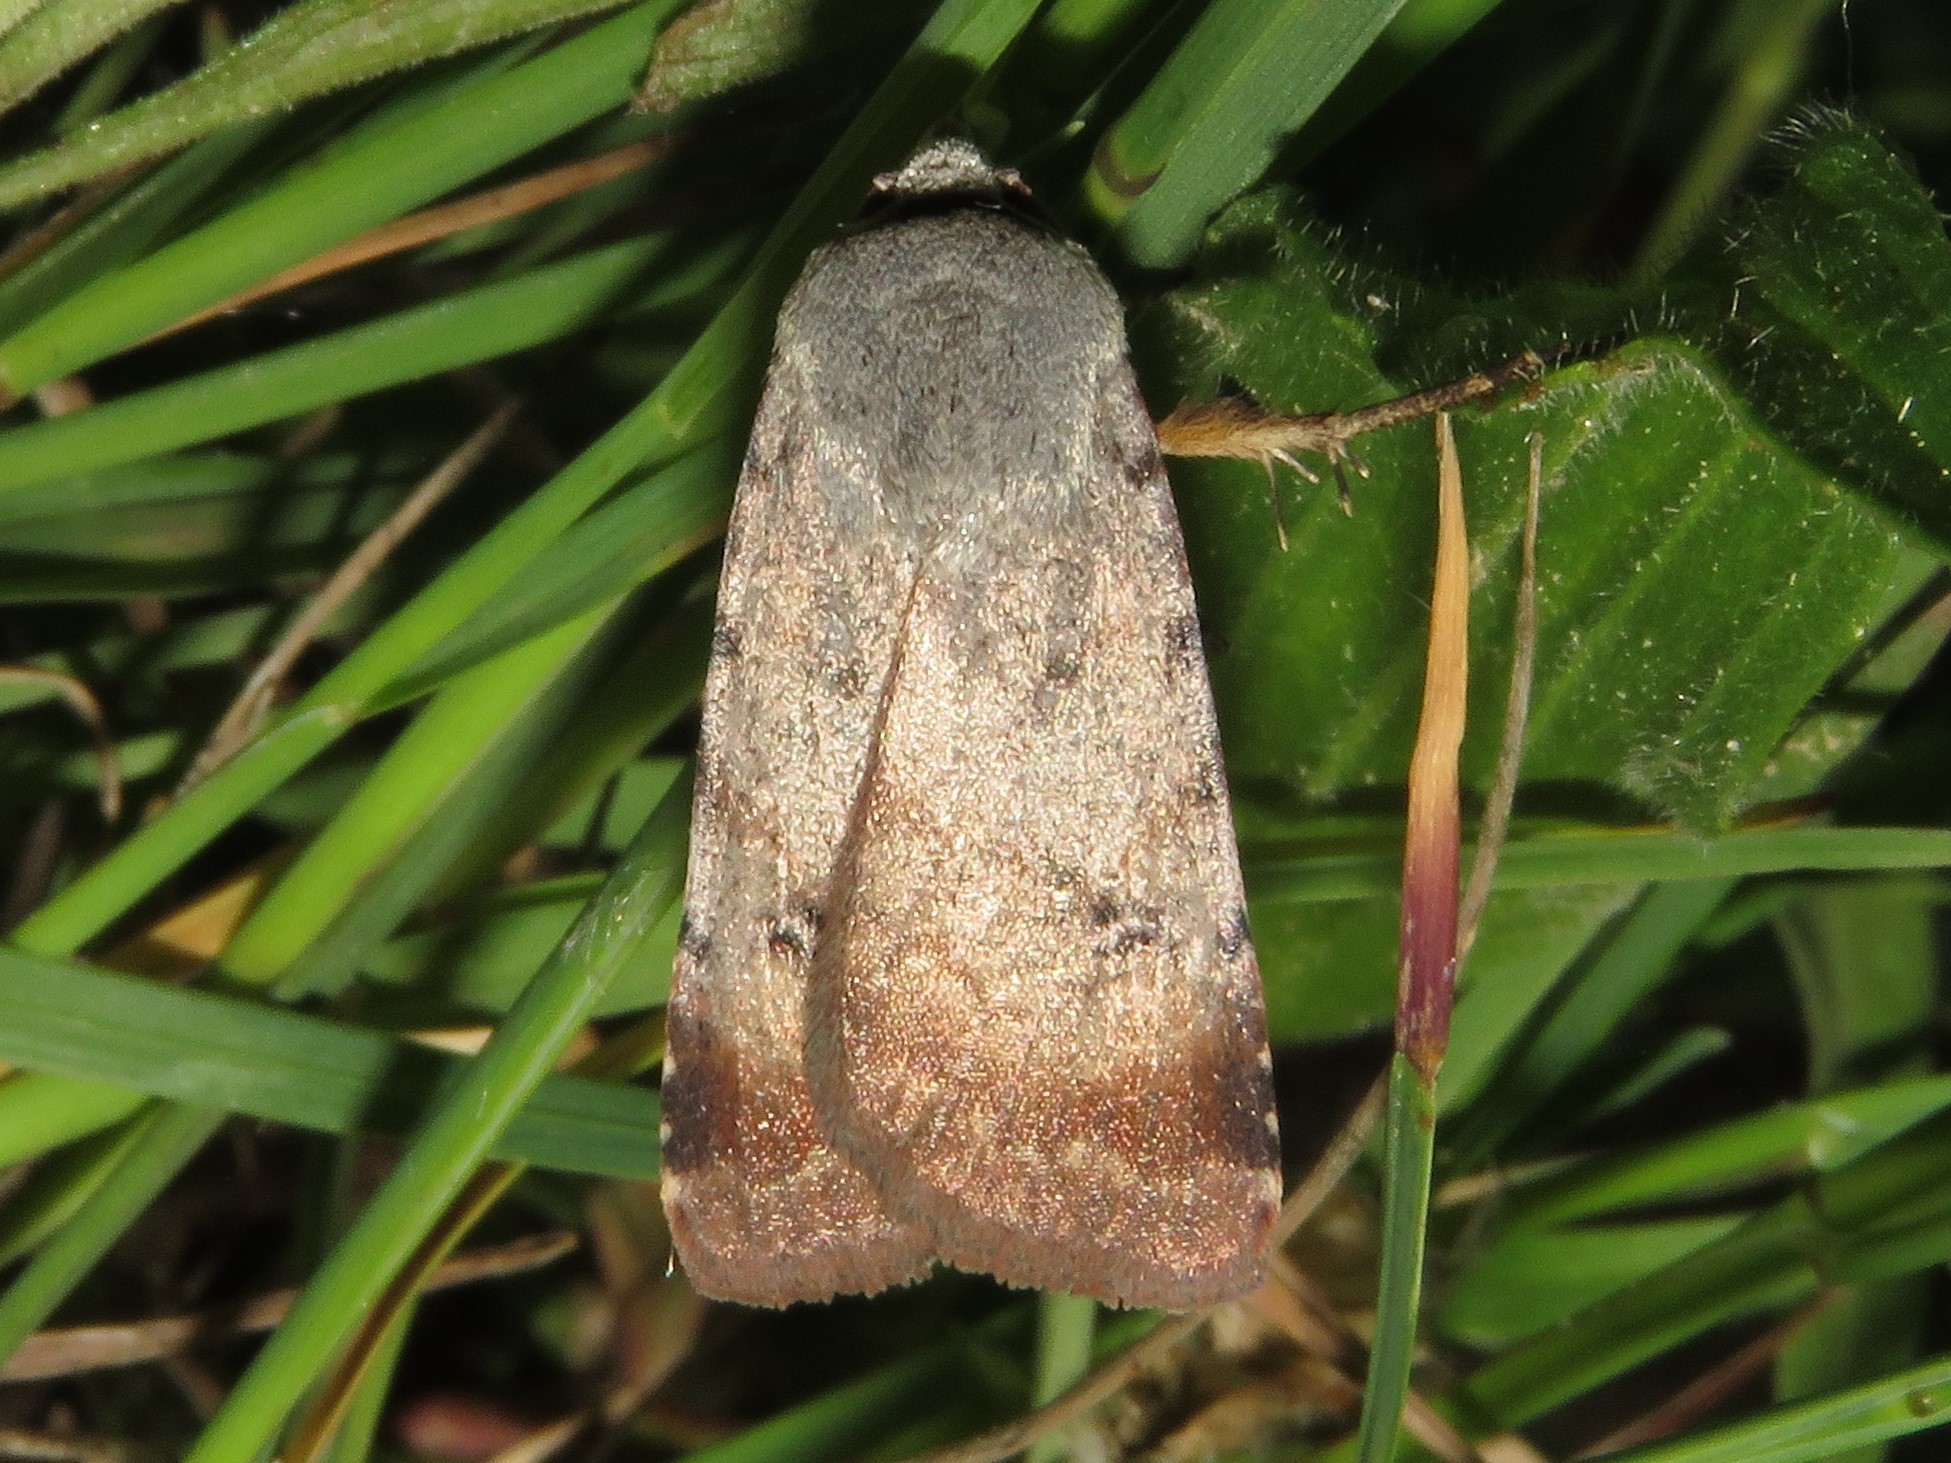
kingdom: Animalia
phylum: Arthropoda
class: Insecta
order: Lepidoptera
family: Noctuidae
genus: Anicla
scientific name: Anicla illapsa
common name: Snowy dart
